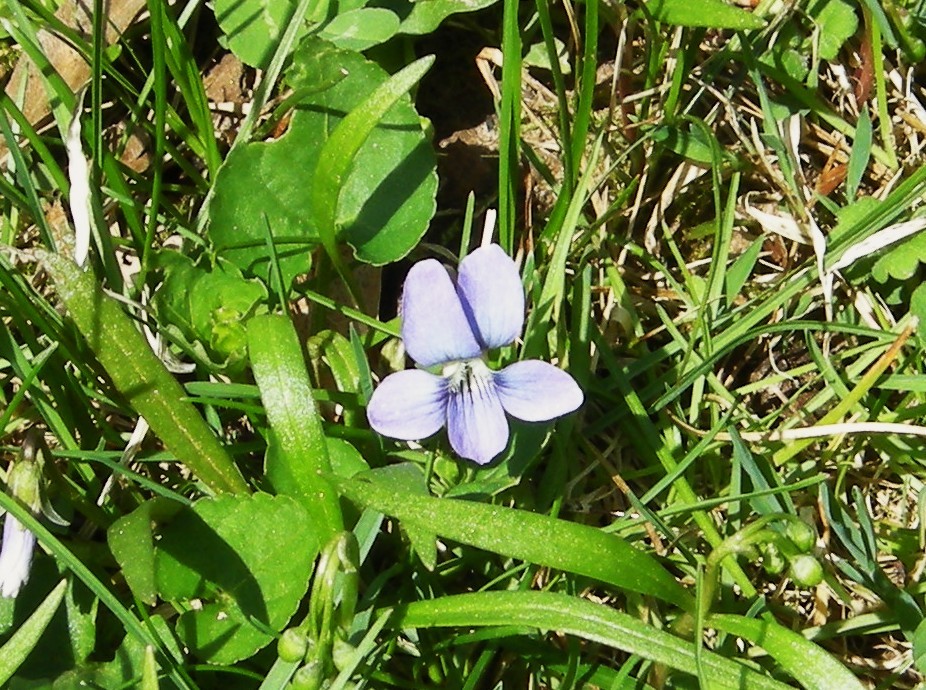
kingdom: Plantae
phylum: Tracheophyta
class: Magnoliopsida
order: Malpighiales
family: Violaceae
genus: Viola
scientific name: Viola sororia
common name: Dooryard violet
